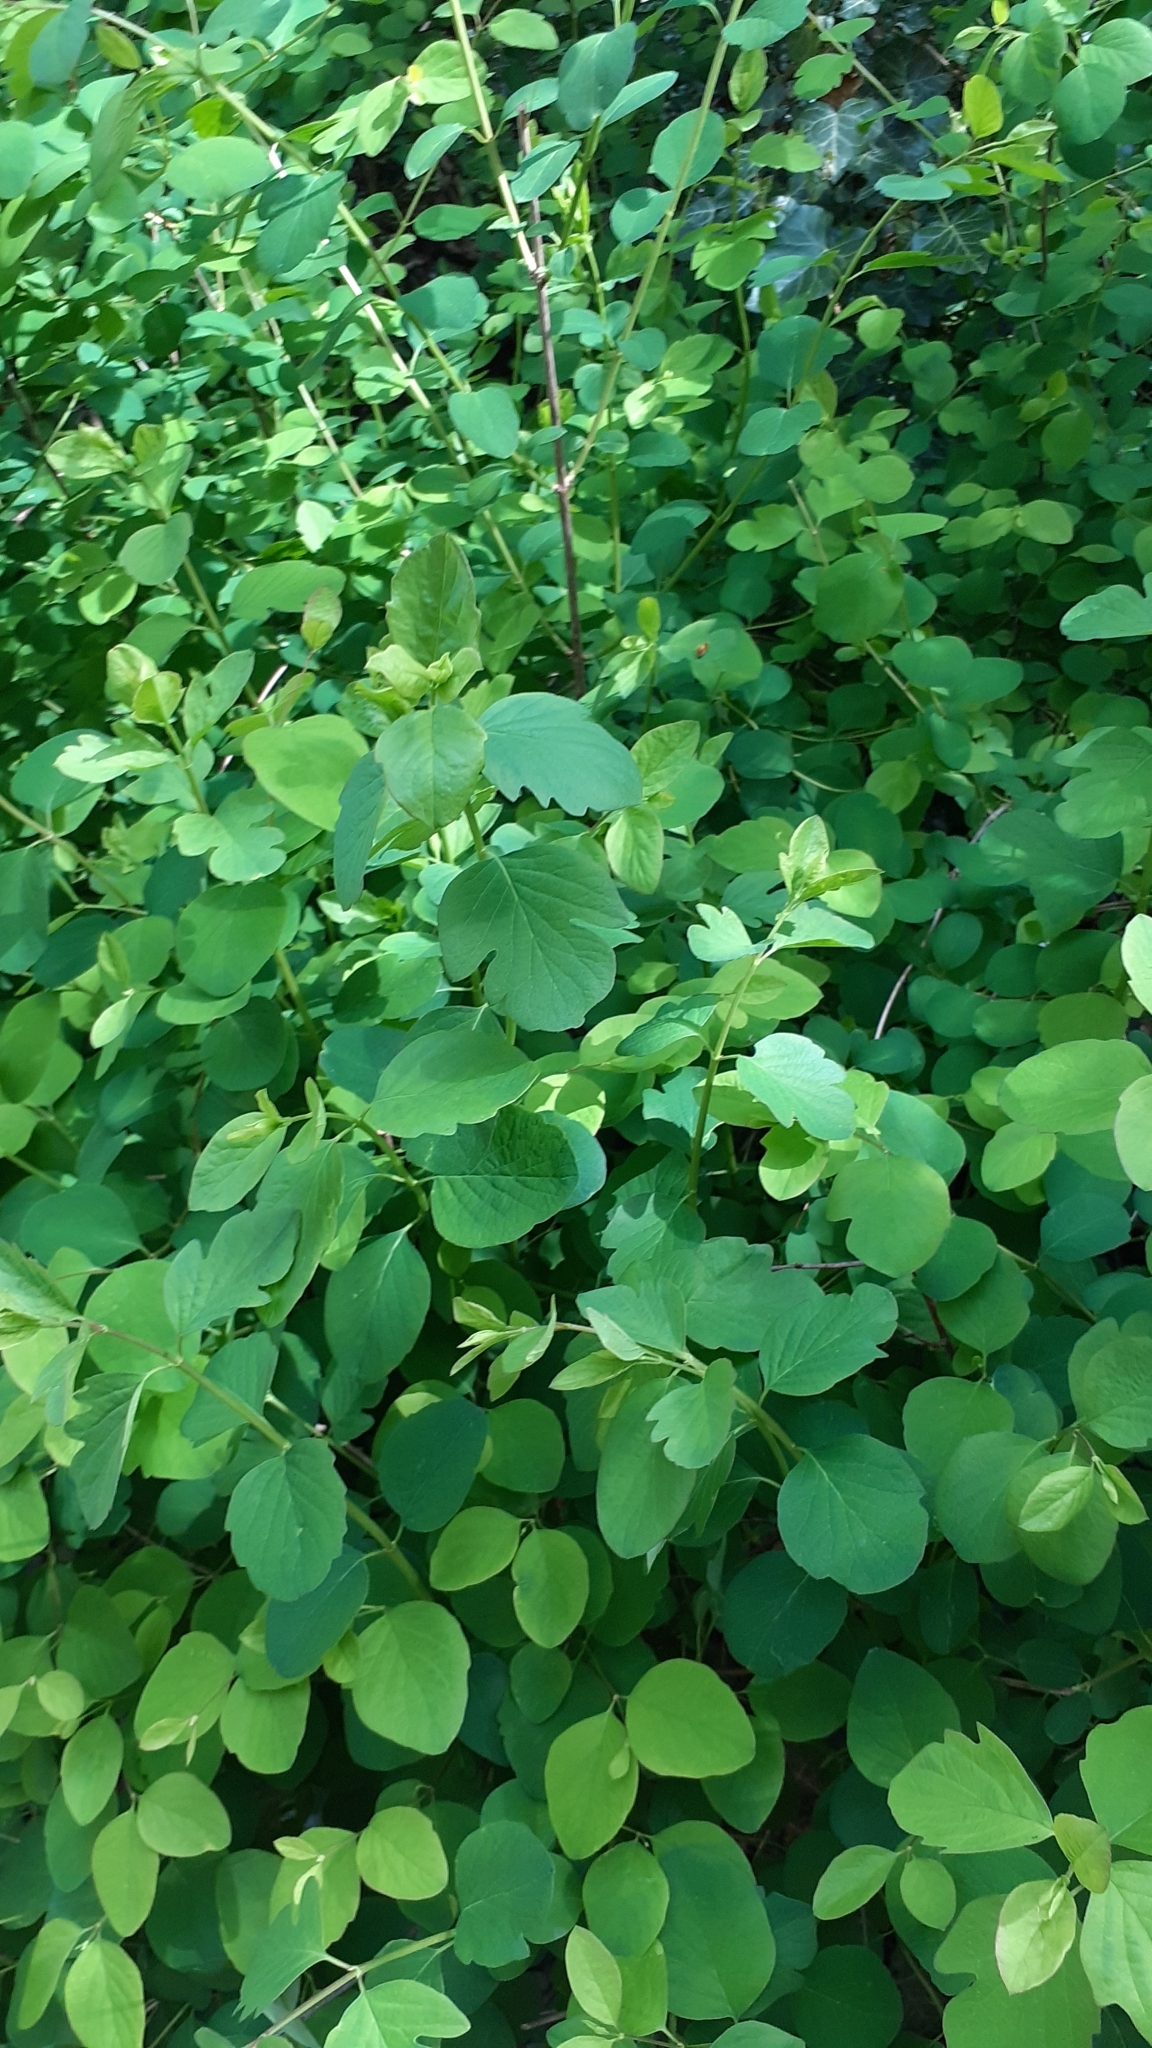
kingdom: Plantae
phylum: Tracheophyta
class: Magnoliopsida
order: Dipsacales
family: Caprifoliaceae
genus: Symphoricarpos
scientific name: Symphoricarpos albus
